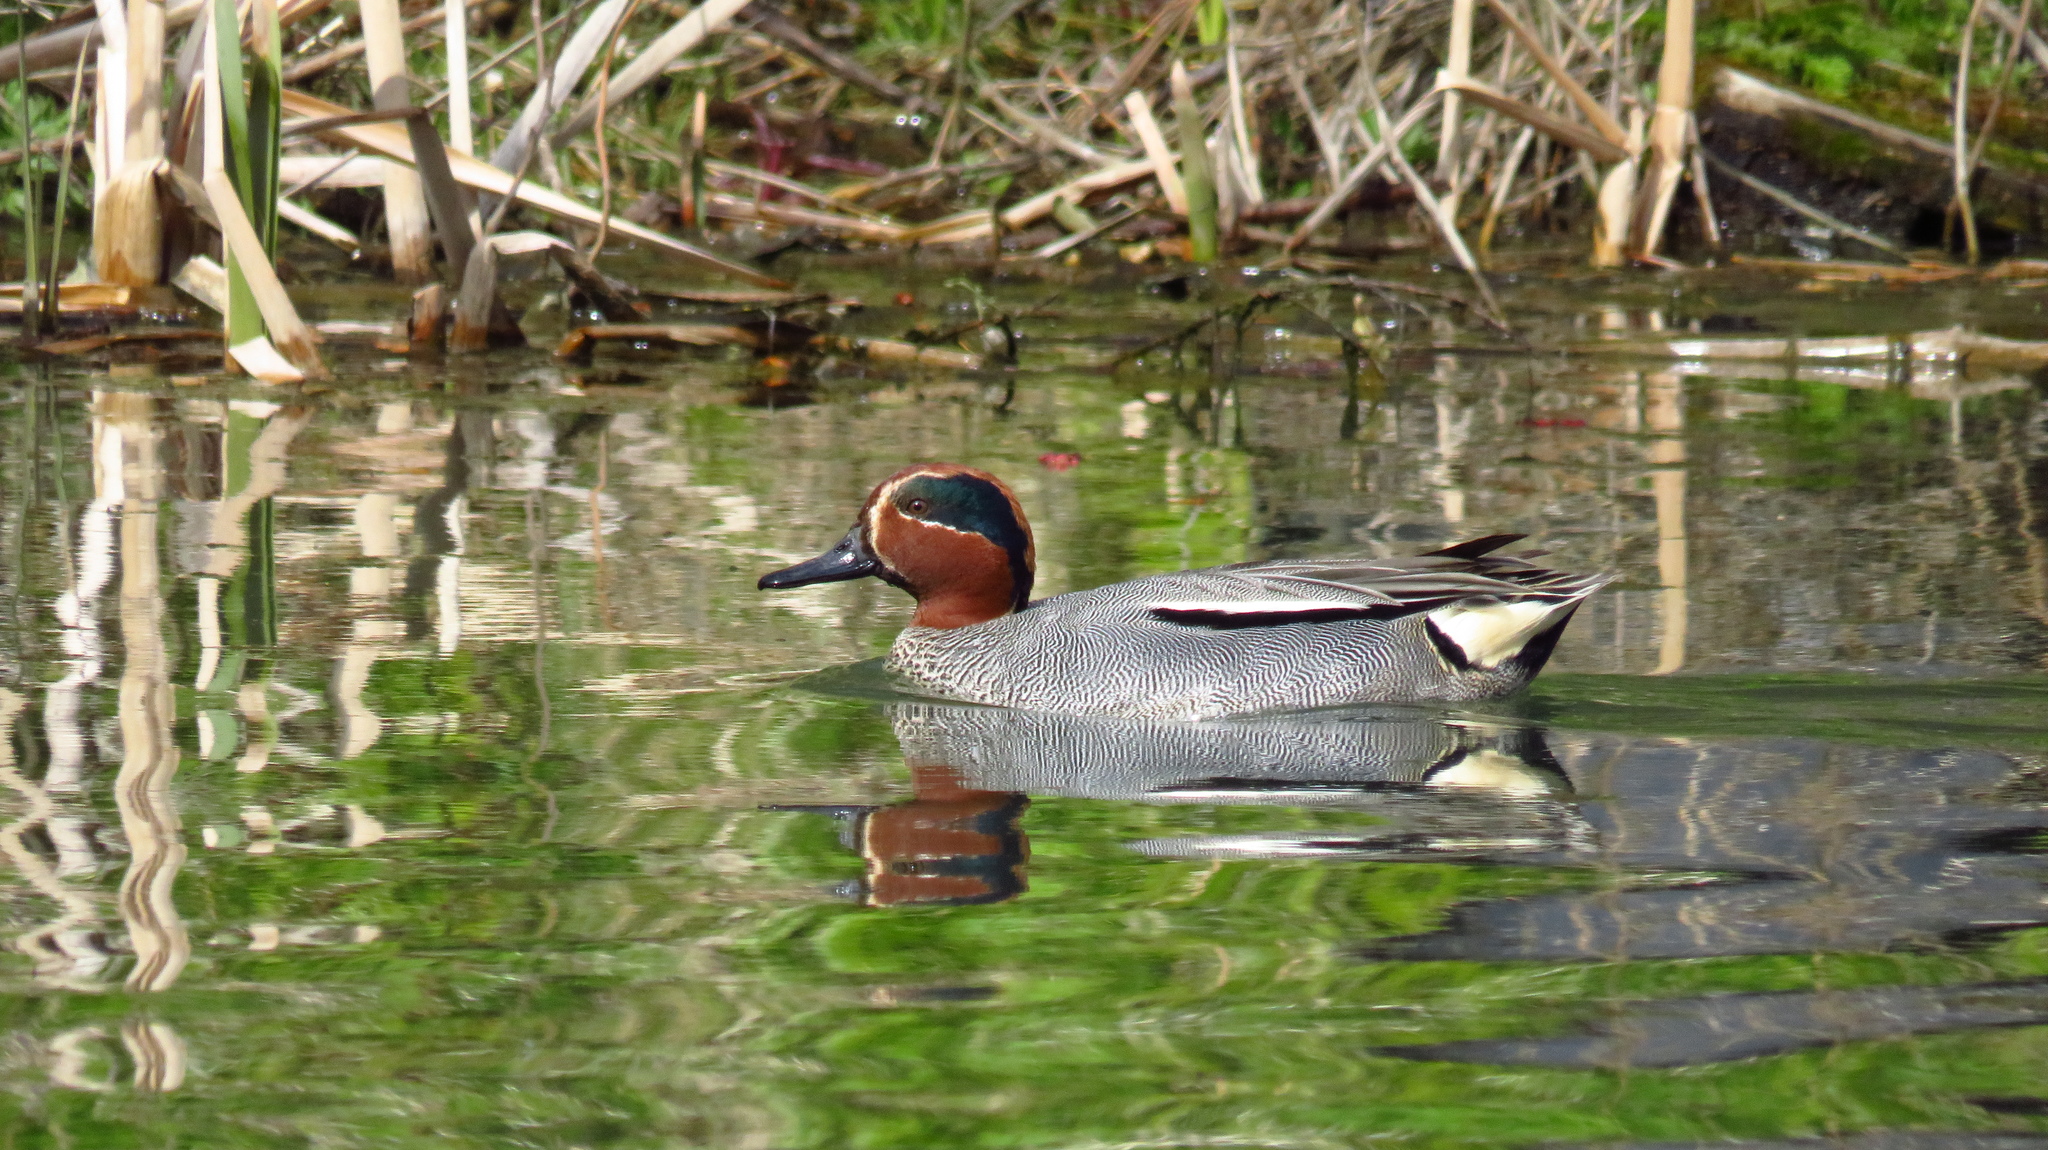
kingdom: Animalia
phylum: Chordata
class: Aves
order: Anseriformes
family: Anatidae
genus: Anas
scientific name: Anas crecca
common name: Eurasian teal
